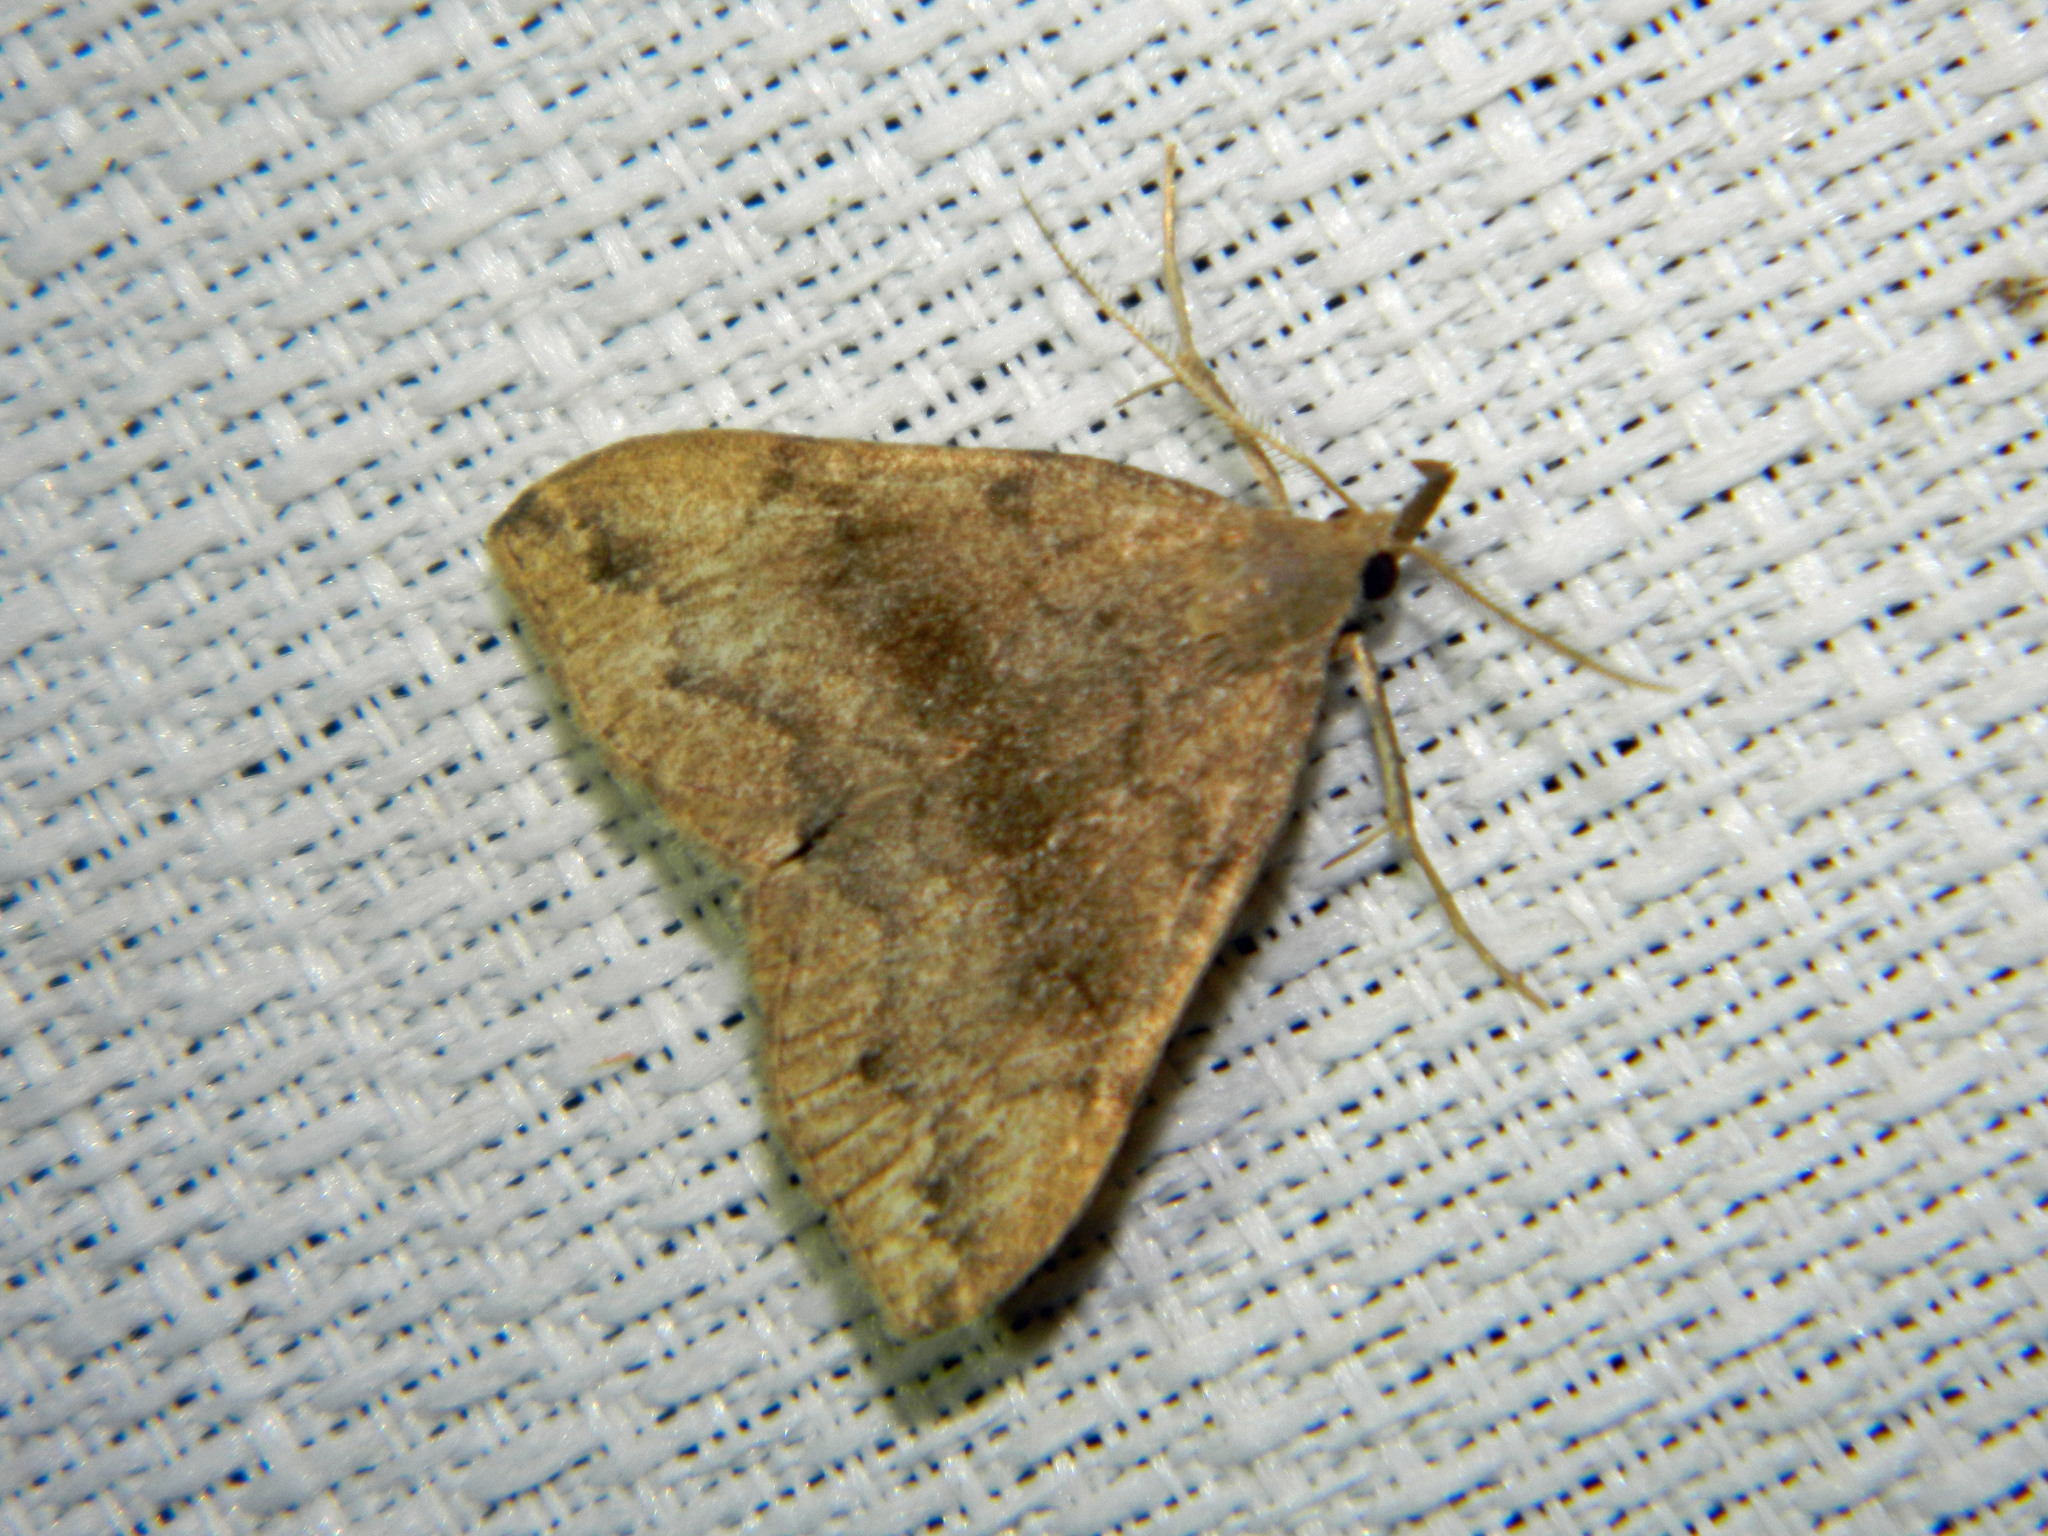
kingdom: Animalia
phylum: Arthropoda
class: Insecta
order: Lepidoptera
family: Erebidae
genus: Phalaenostola
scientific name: Phalaenostola eumelusalis
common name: Dark phalaenostola moth
